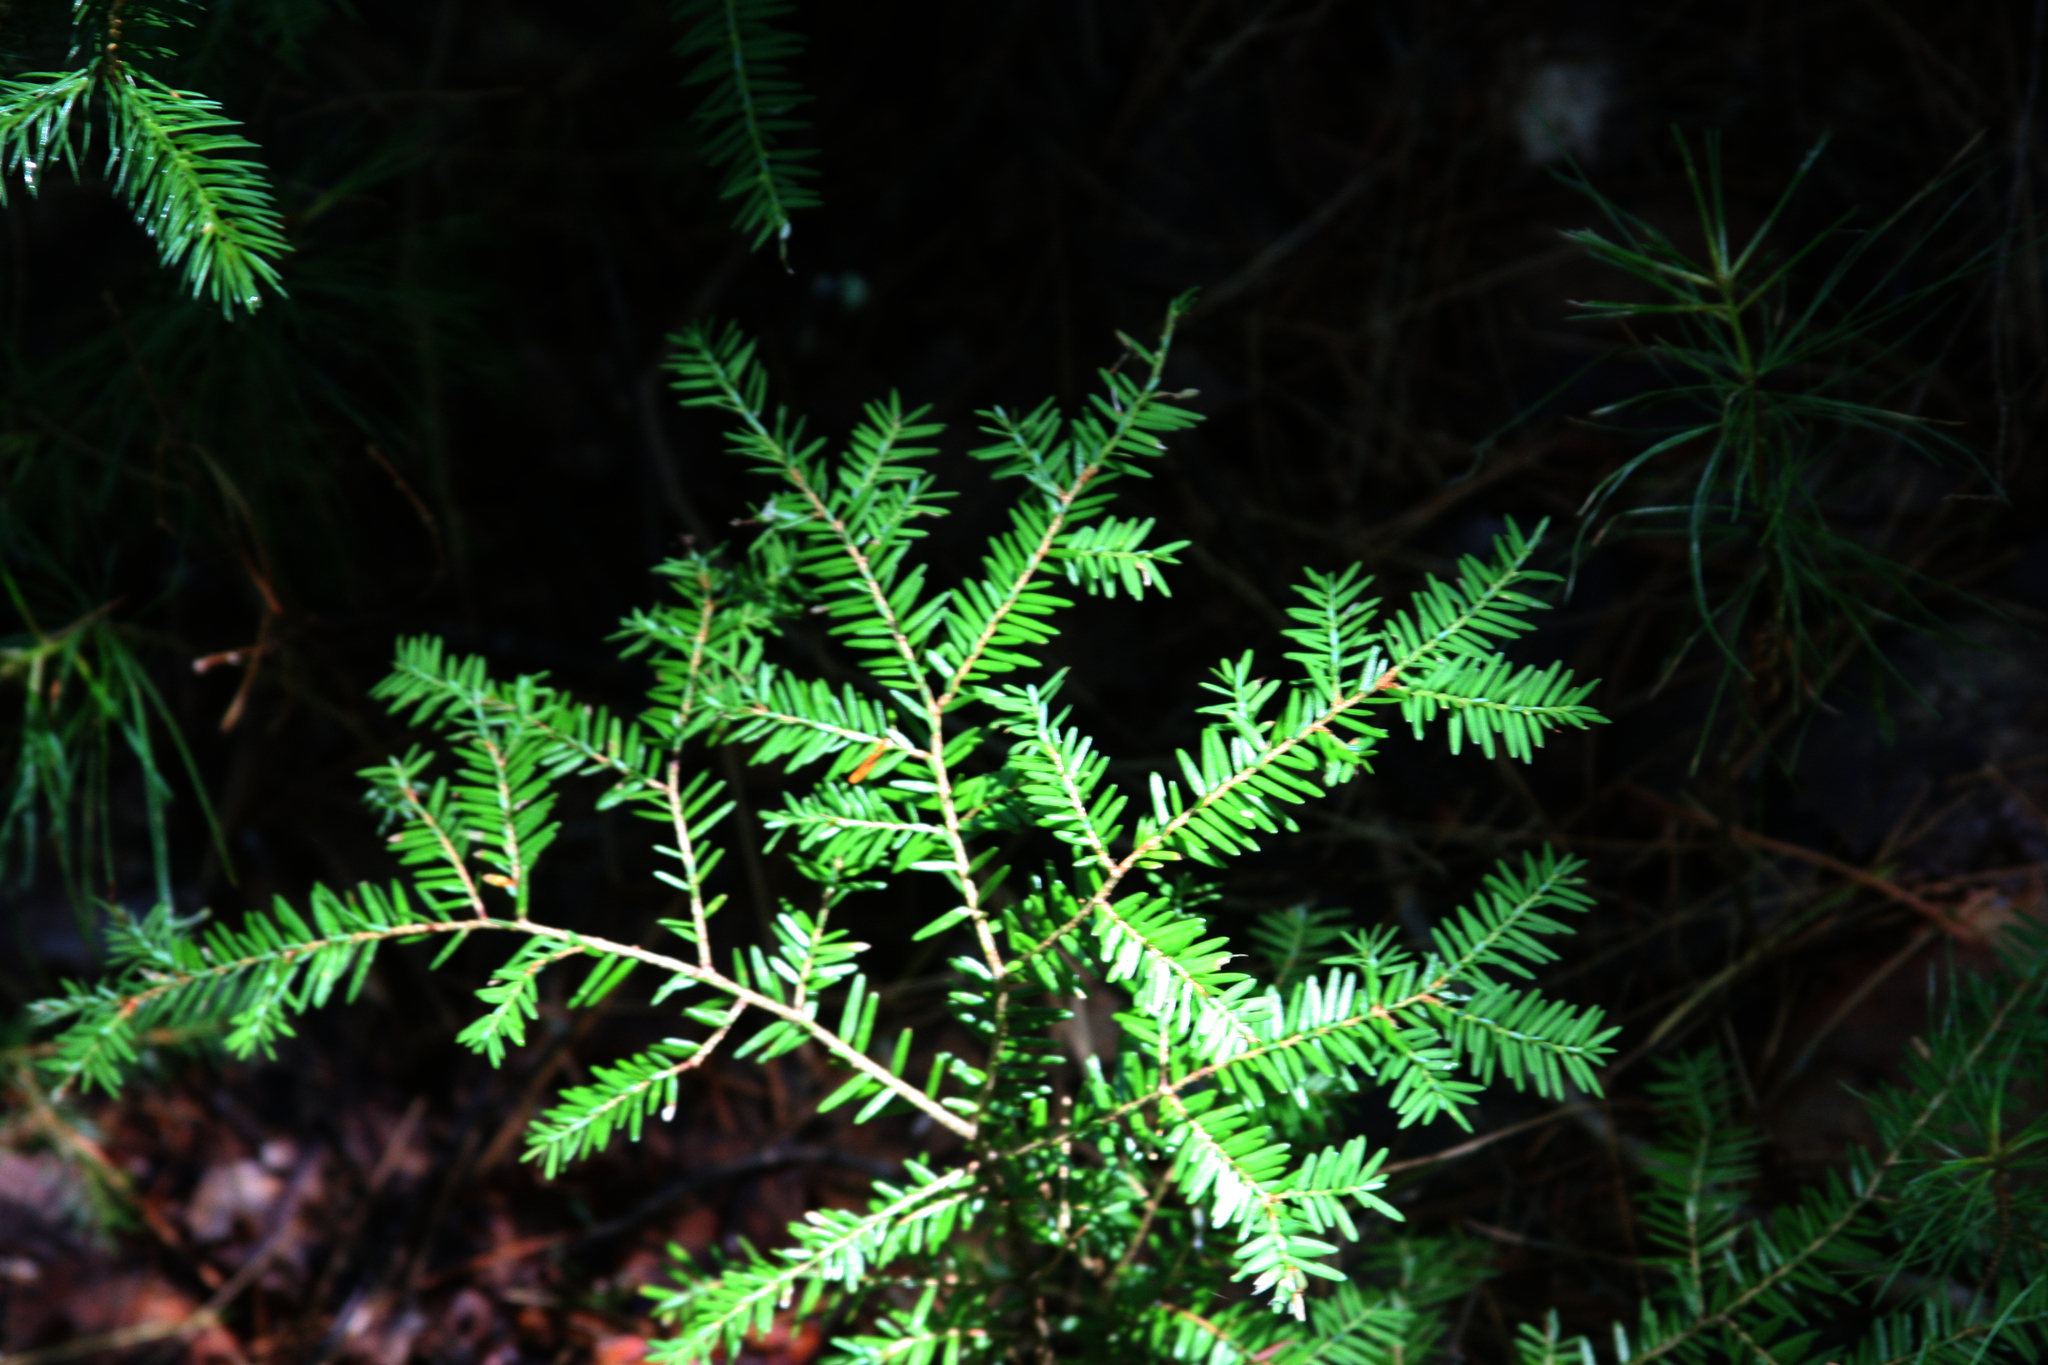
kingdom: Plantae
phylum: Tracheophyta
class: Pinopsida
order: Pinales
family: Pinaceae
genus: Tsuga
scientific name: Tsuga canadensis
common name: Eastern hemlock
